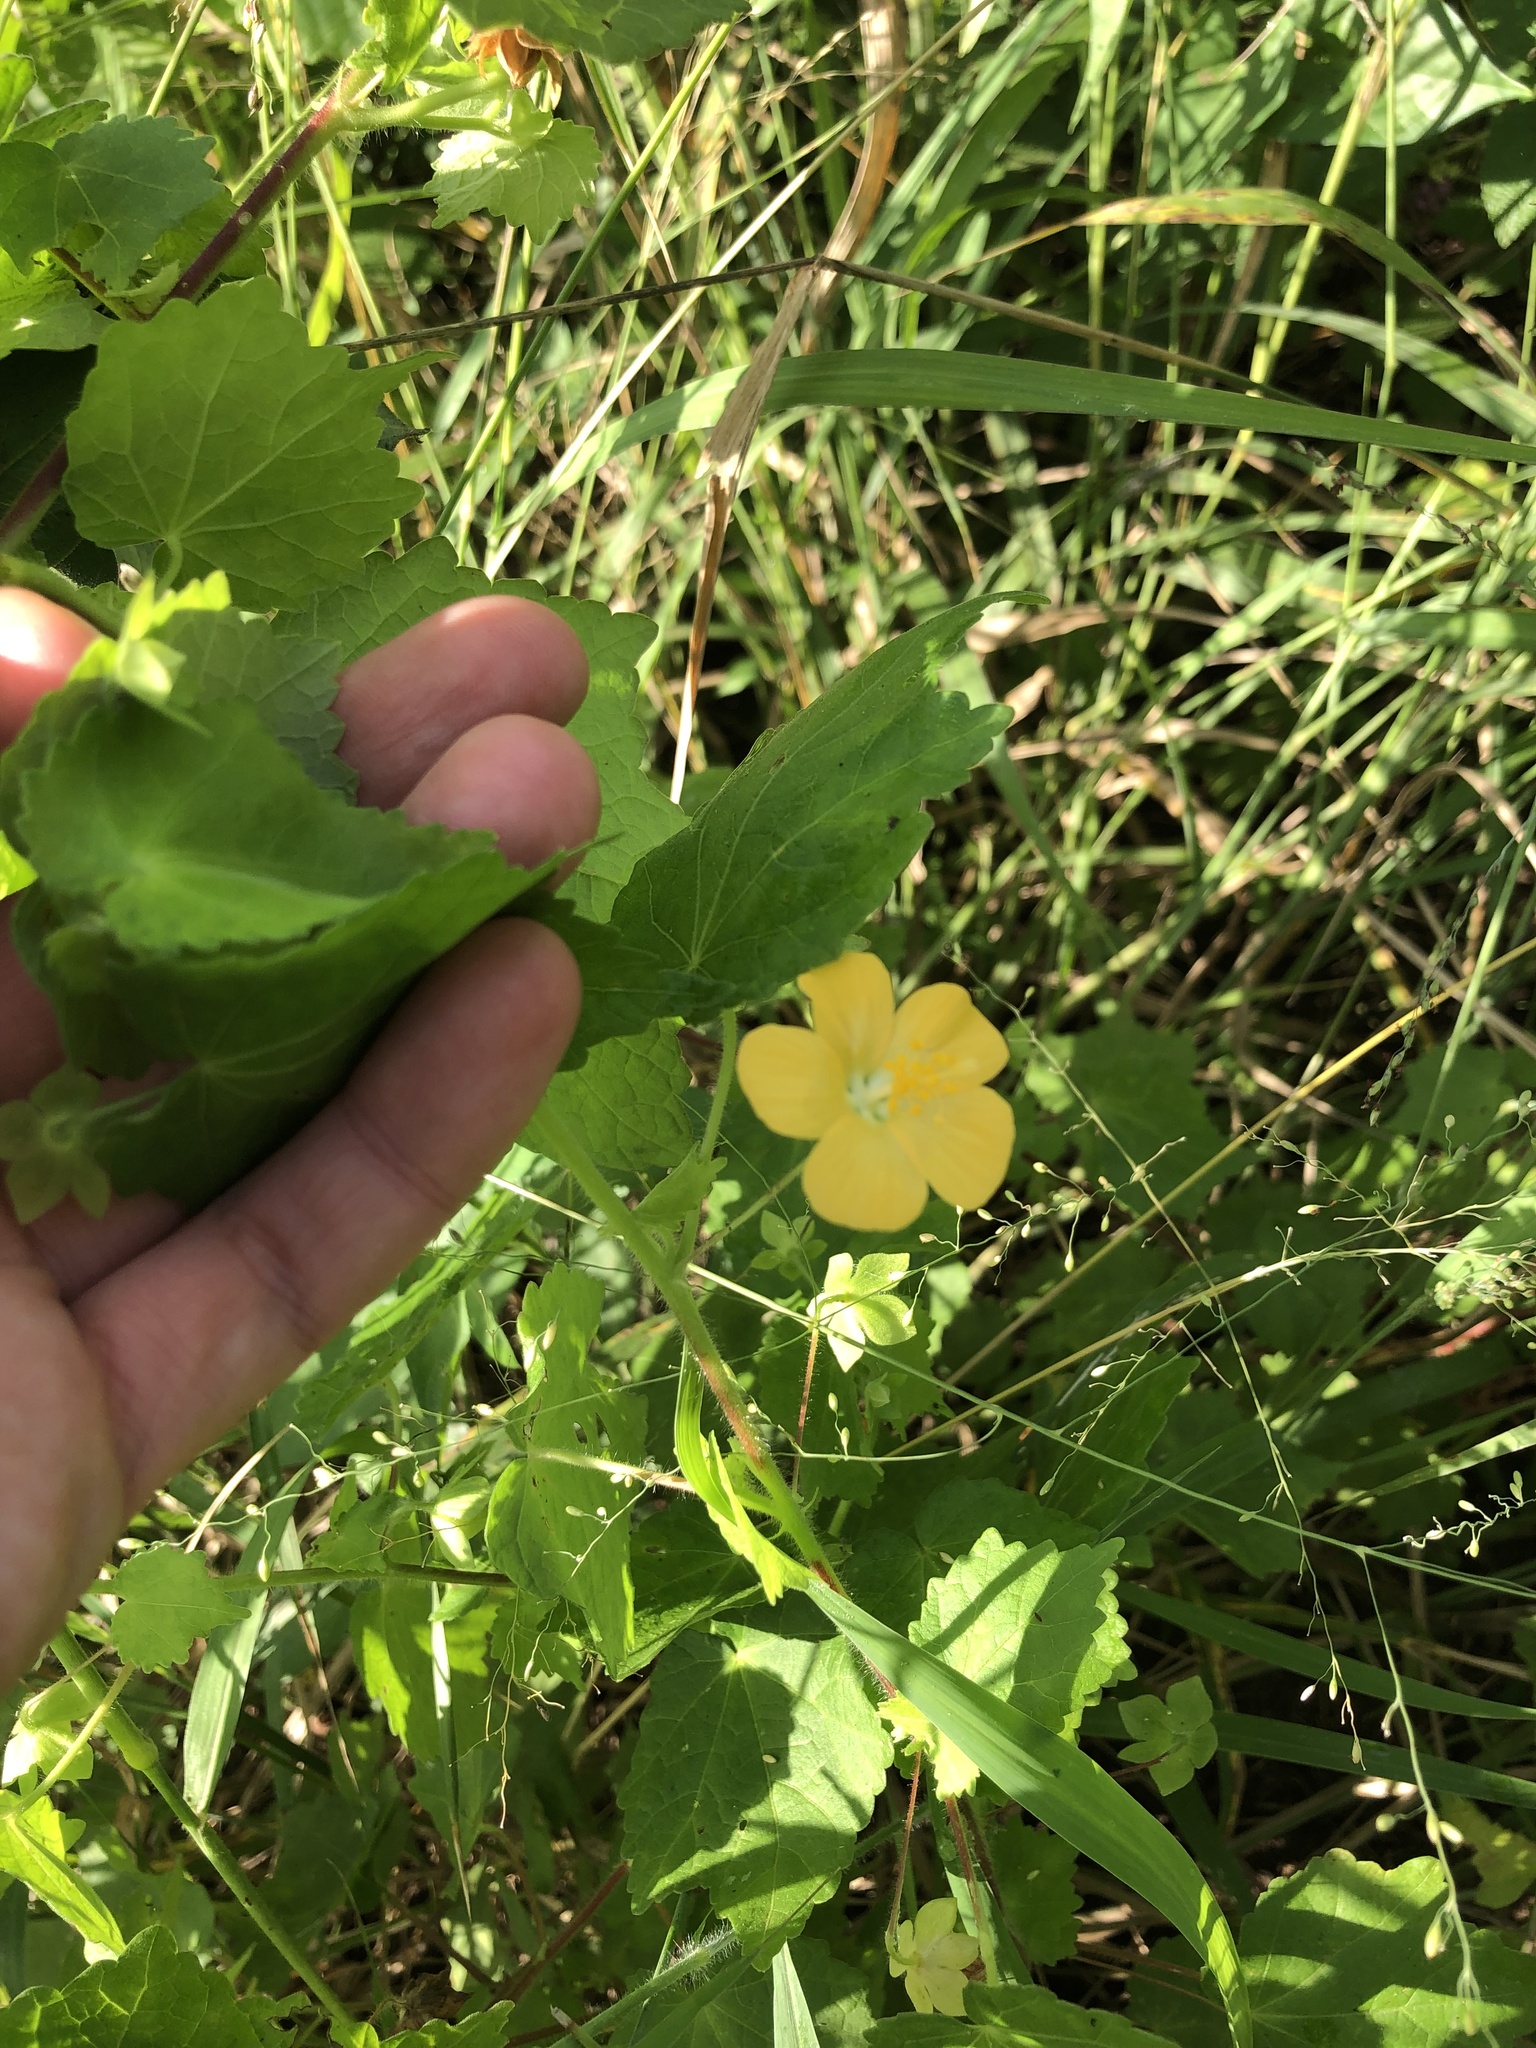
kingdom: Plantae
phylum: Tracheophyta
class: Magnoliopsida
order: Malvales
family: Malvaceae
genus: Pavonia
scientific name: Pavonia burchellii
